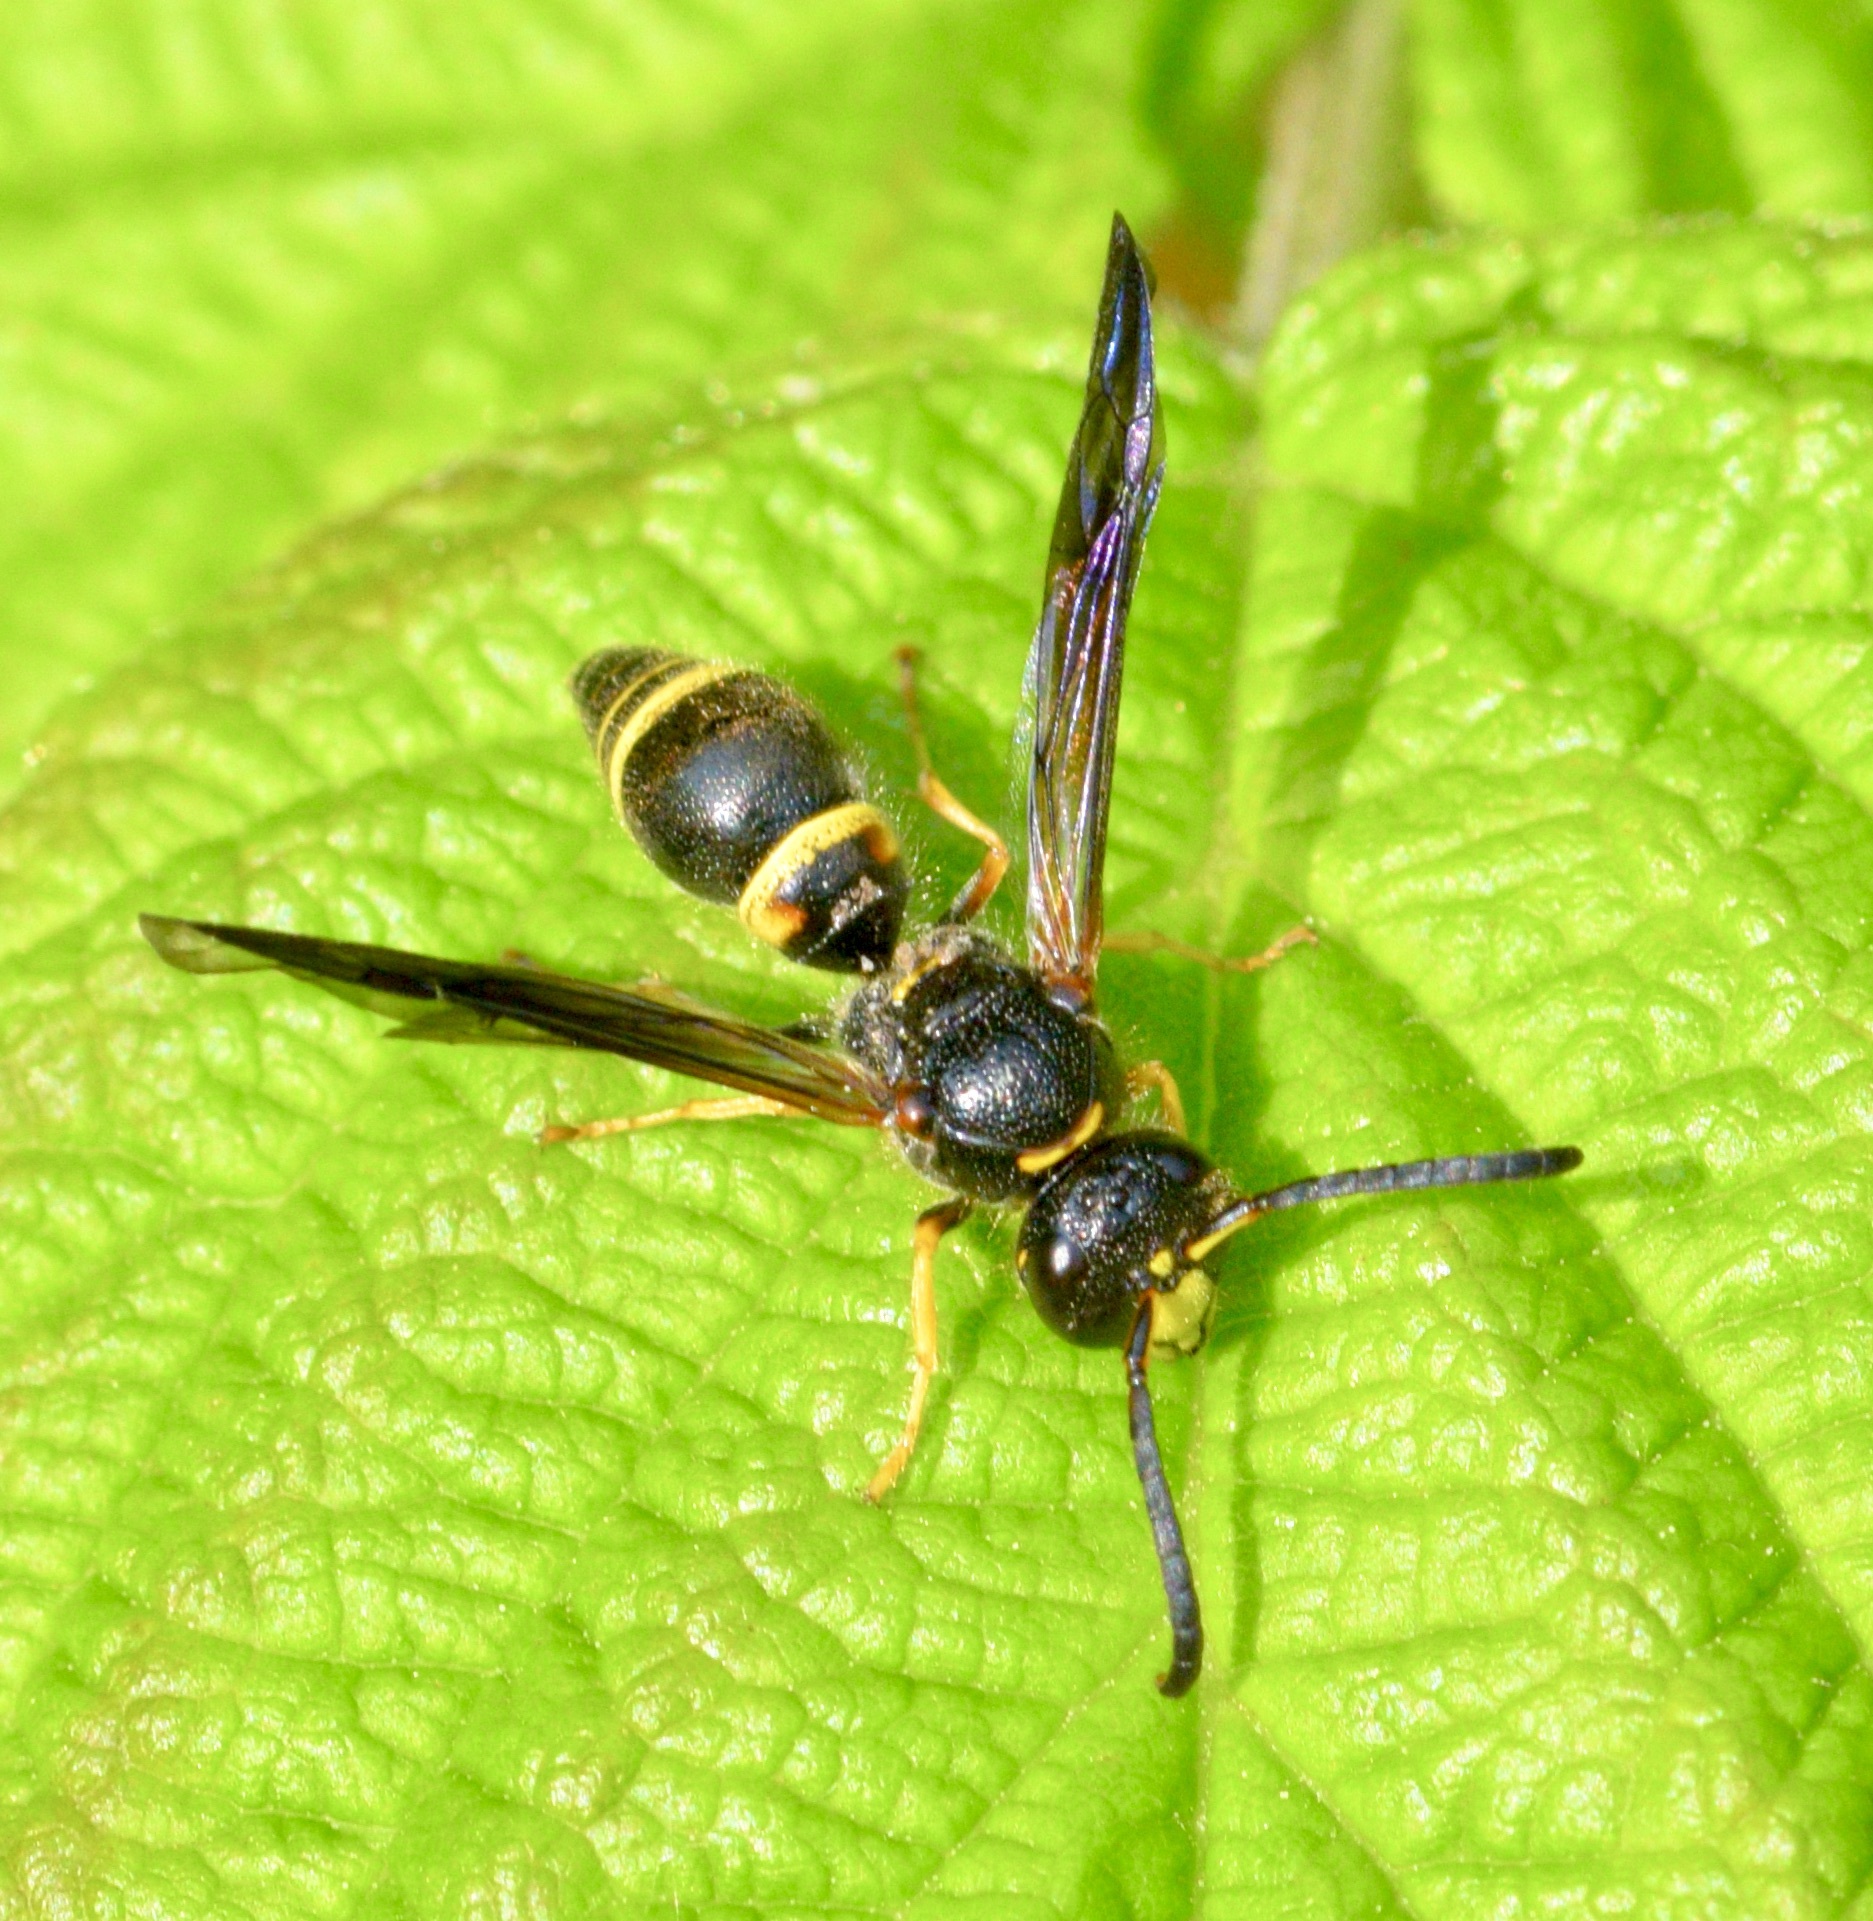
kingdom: Animalia
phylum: Arthropoda
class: Insecta
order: Hymenoptera
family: Vespidae
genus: Ancistrocerus
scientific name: Ancistrocerus unifasciatus
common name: One-banded mason wasp
